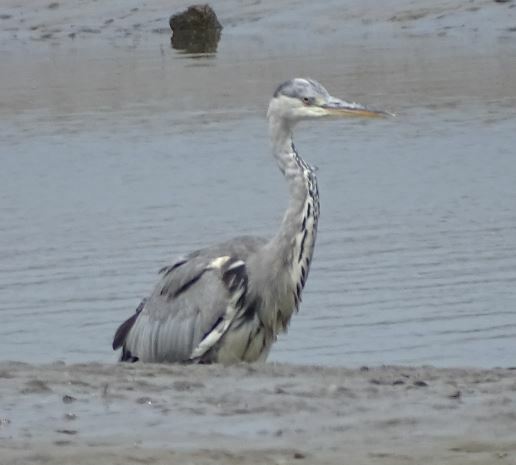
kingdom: Animalia
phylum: Chordata
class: Aves
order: Pelecaniformes
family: Ardeidae
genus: Ardea
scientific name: Ardea cinerea
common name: Grey heron
